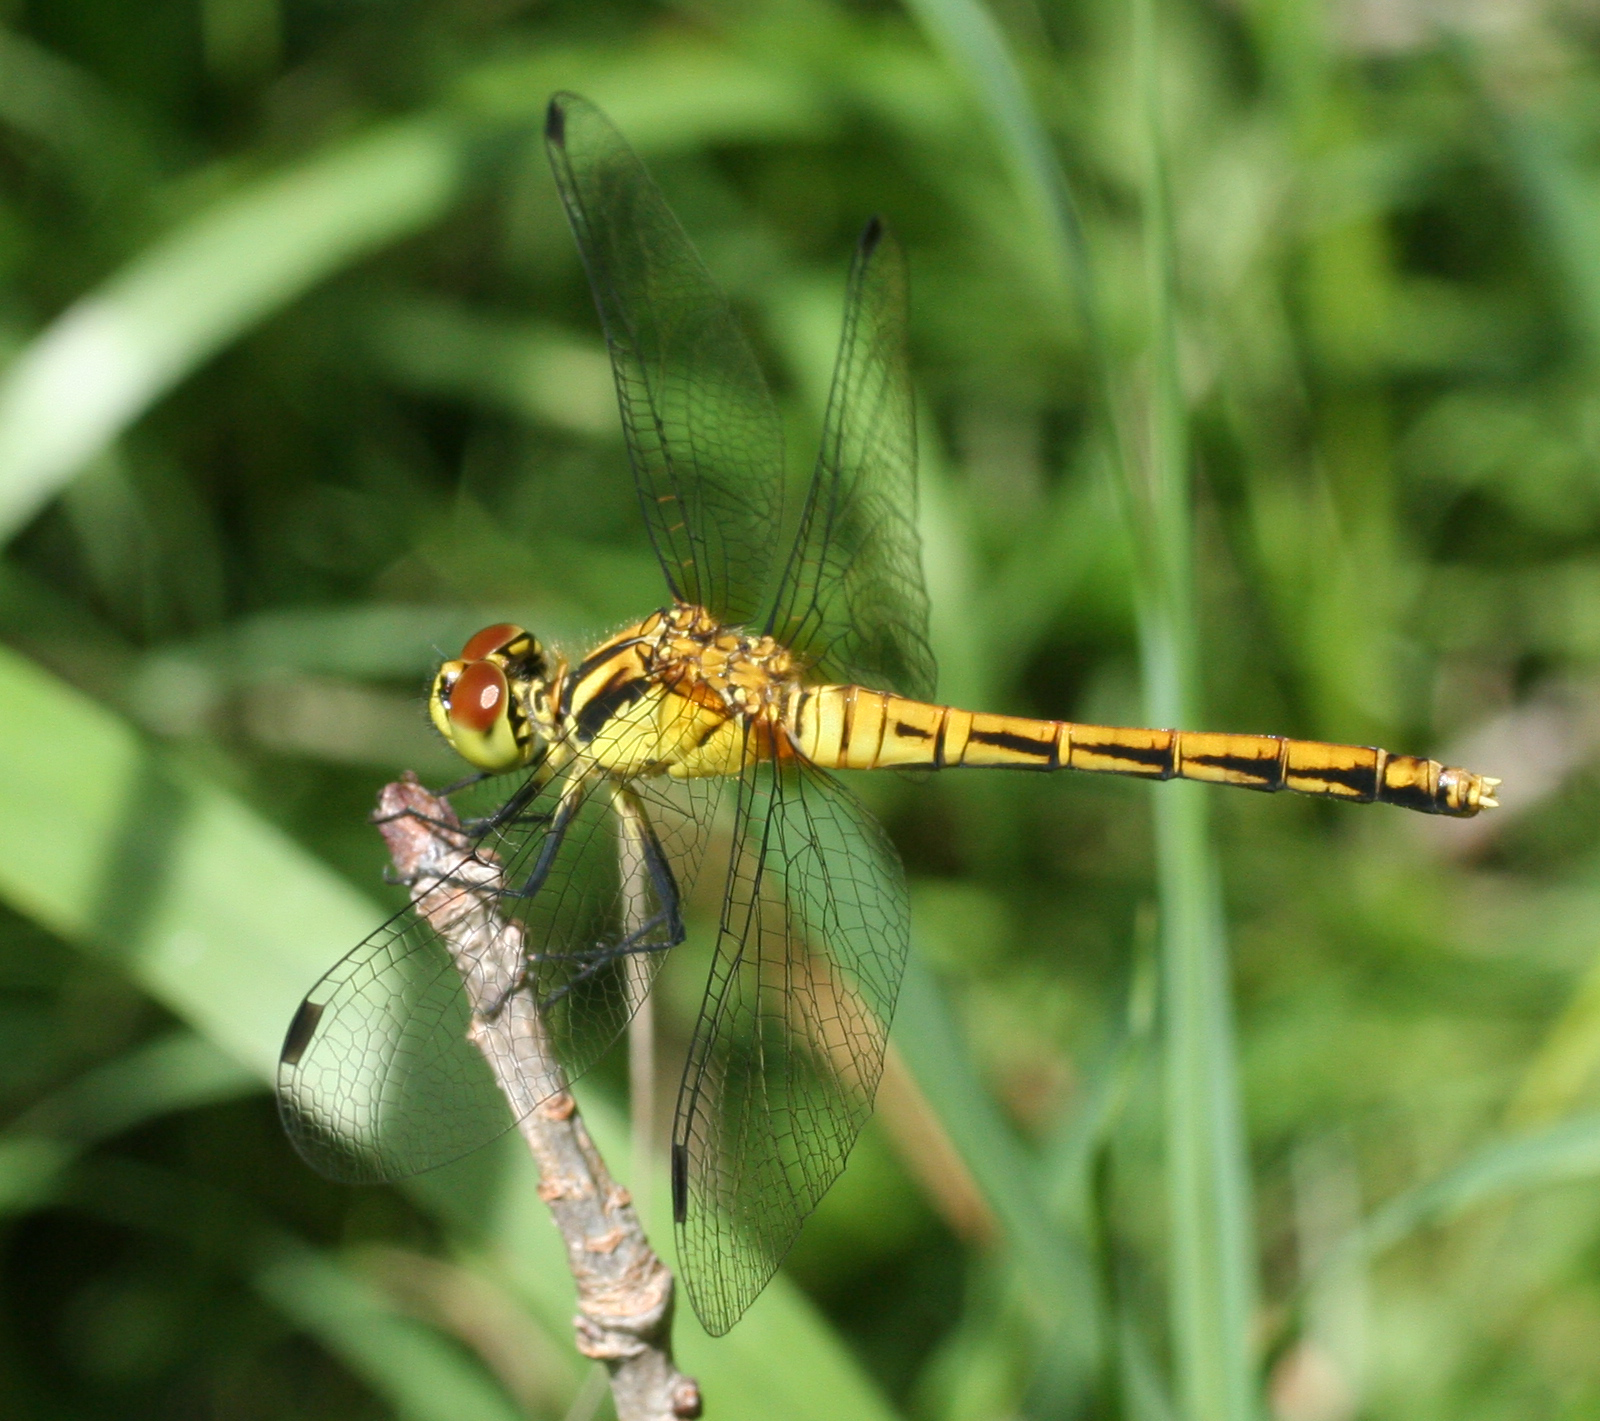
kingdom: Animalia
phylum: Arthropoda
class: Insecta
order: Odonata
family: Libellulidae
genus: Sympetrum
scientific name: Sympetrum eroticum
